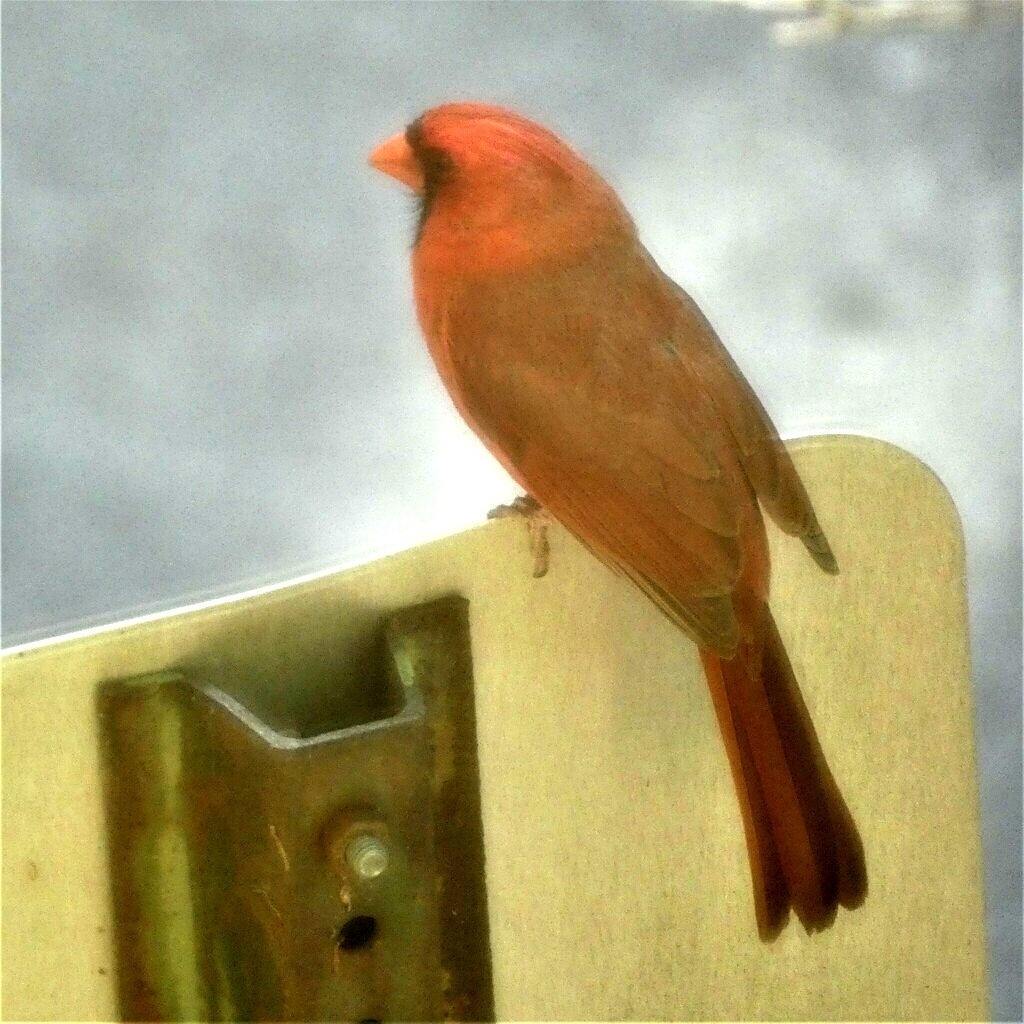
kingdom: Animalia
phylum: Chordata
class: Aves
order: Passeriformes
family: Cardinalidae
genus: Cardinalis
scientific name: Cardinalis cardinalis
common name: Northern cardinal
